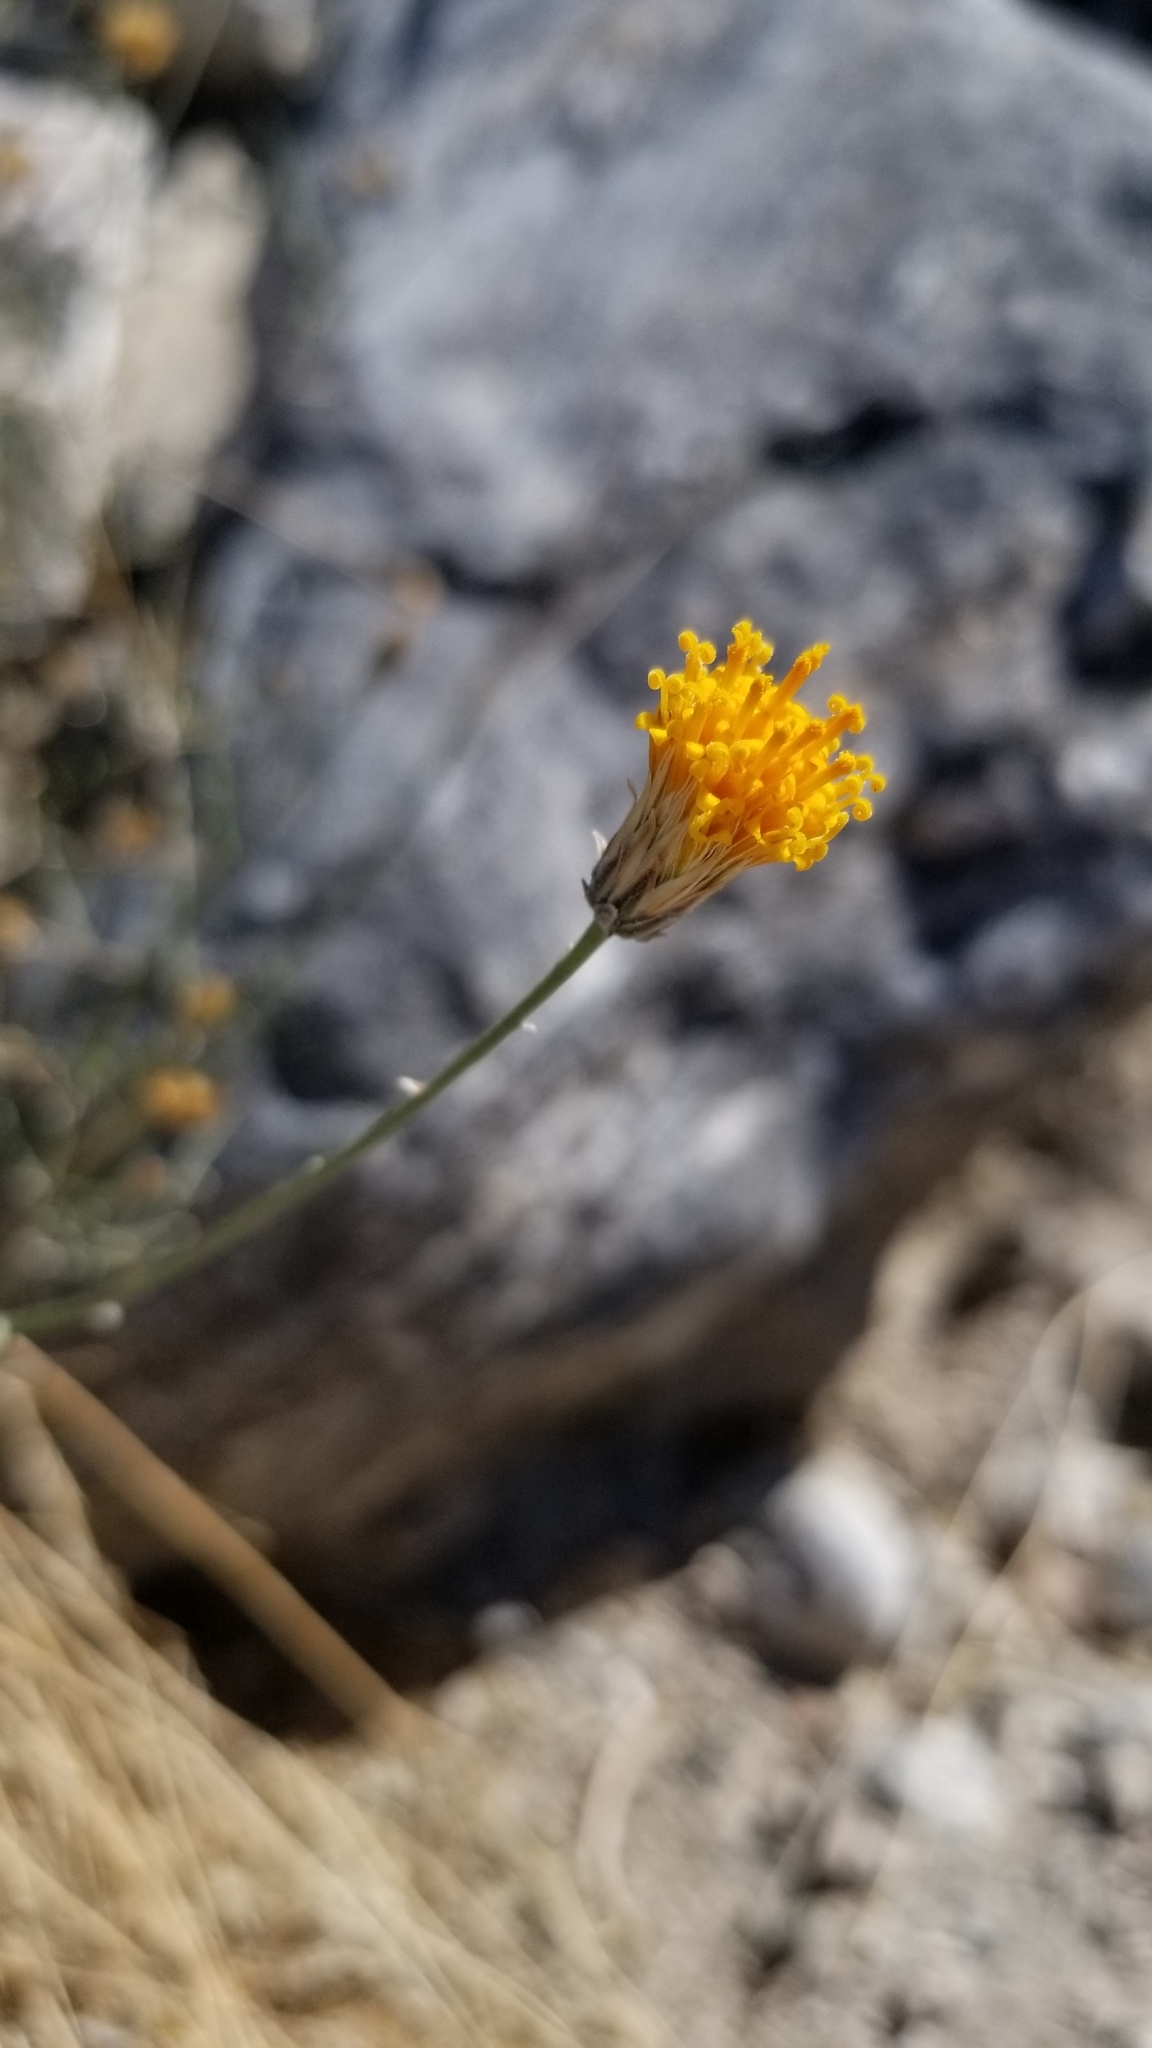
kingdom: Plantae
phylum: Tracheophyta
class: Magnoliopsida
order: Asterales
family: Asteraceae
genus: Bebbia
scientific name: Bebbia juncea
